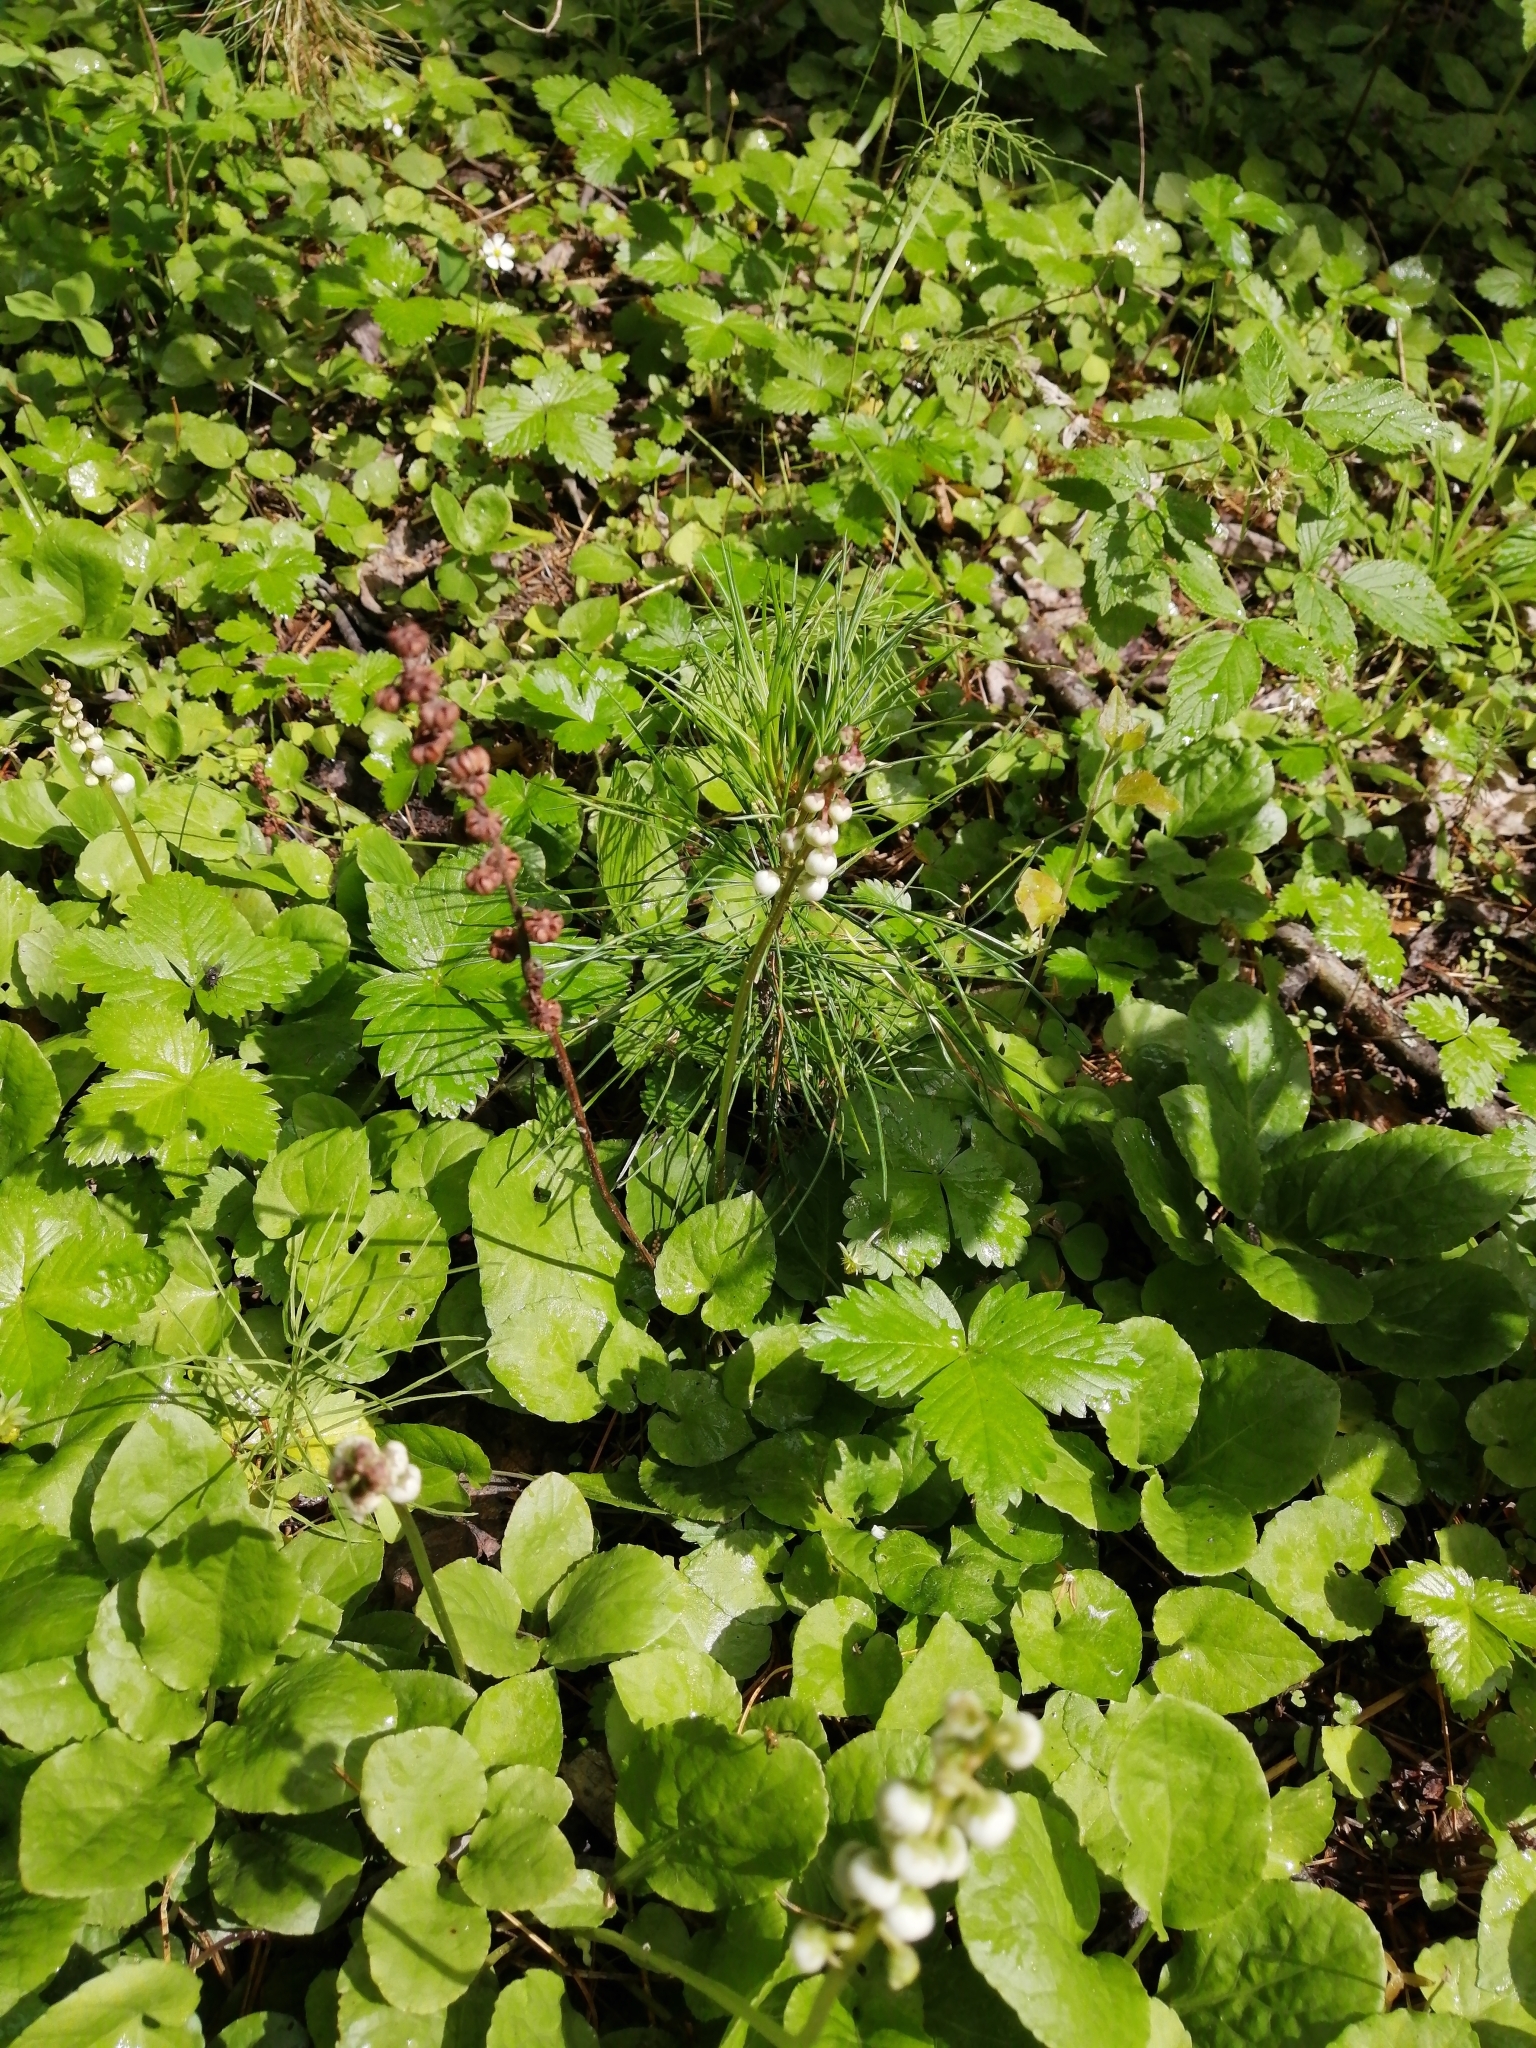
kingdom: Plantae
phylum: Tracheophyta
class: Magnoliopsida
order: Ericales
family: Ericaceae
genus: Pyrola
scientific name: Pyrola minor
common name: Common wintergreen
